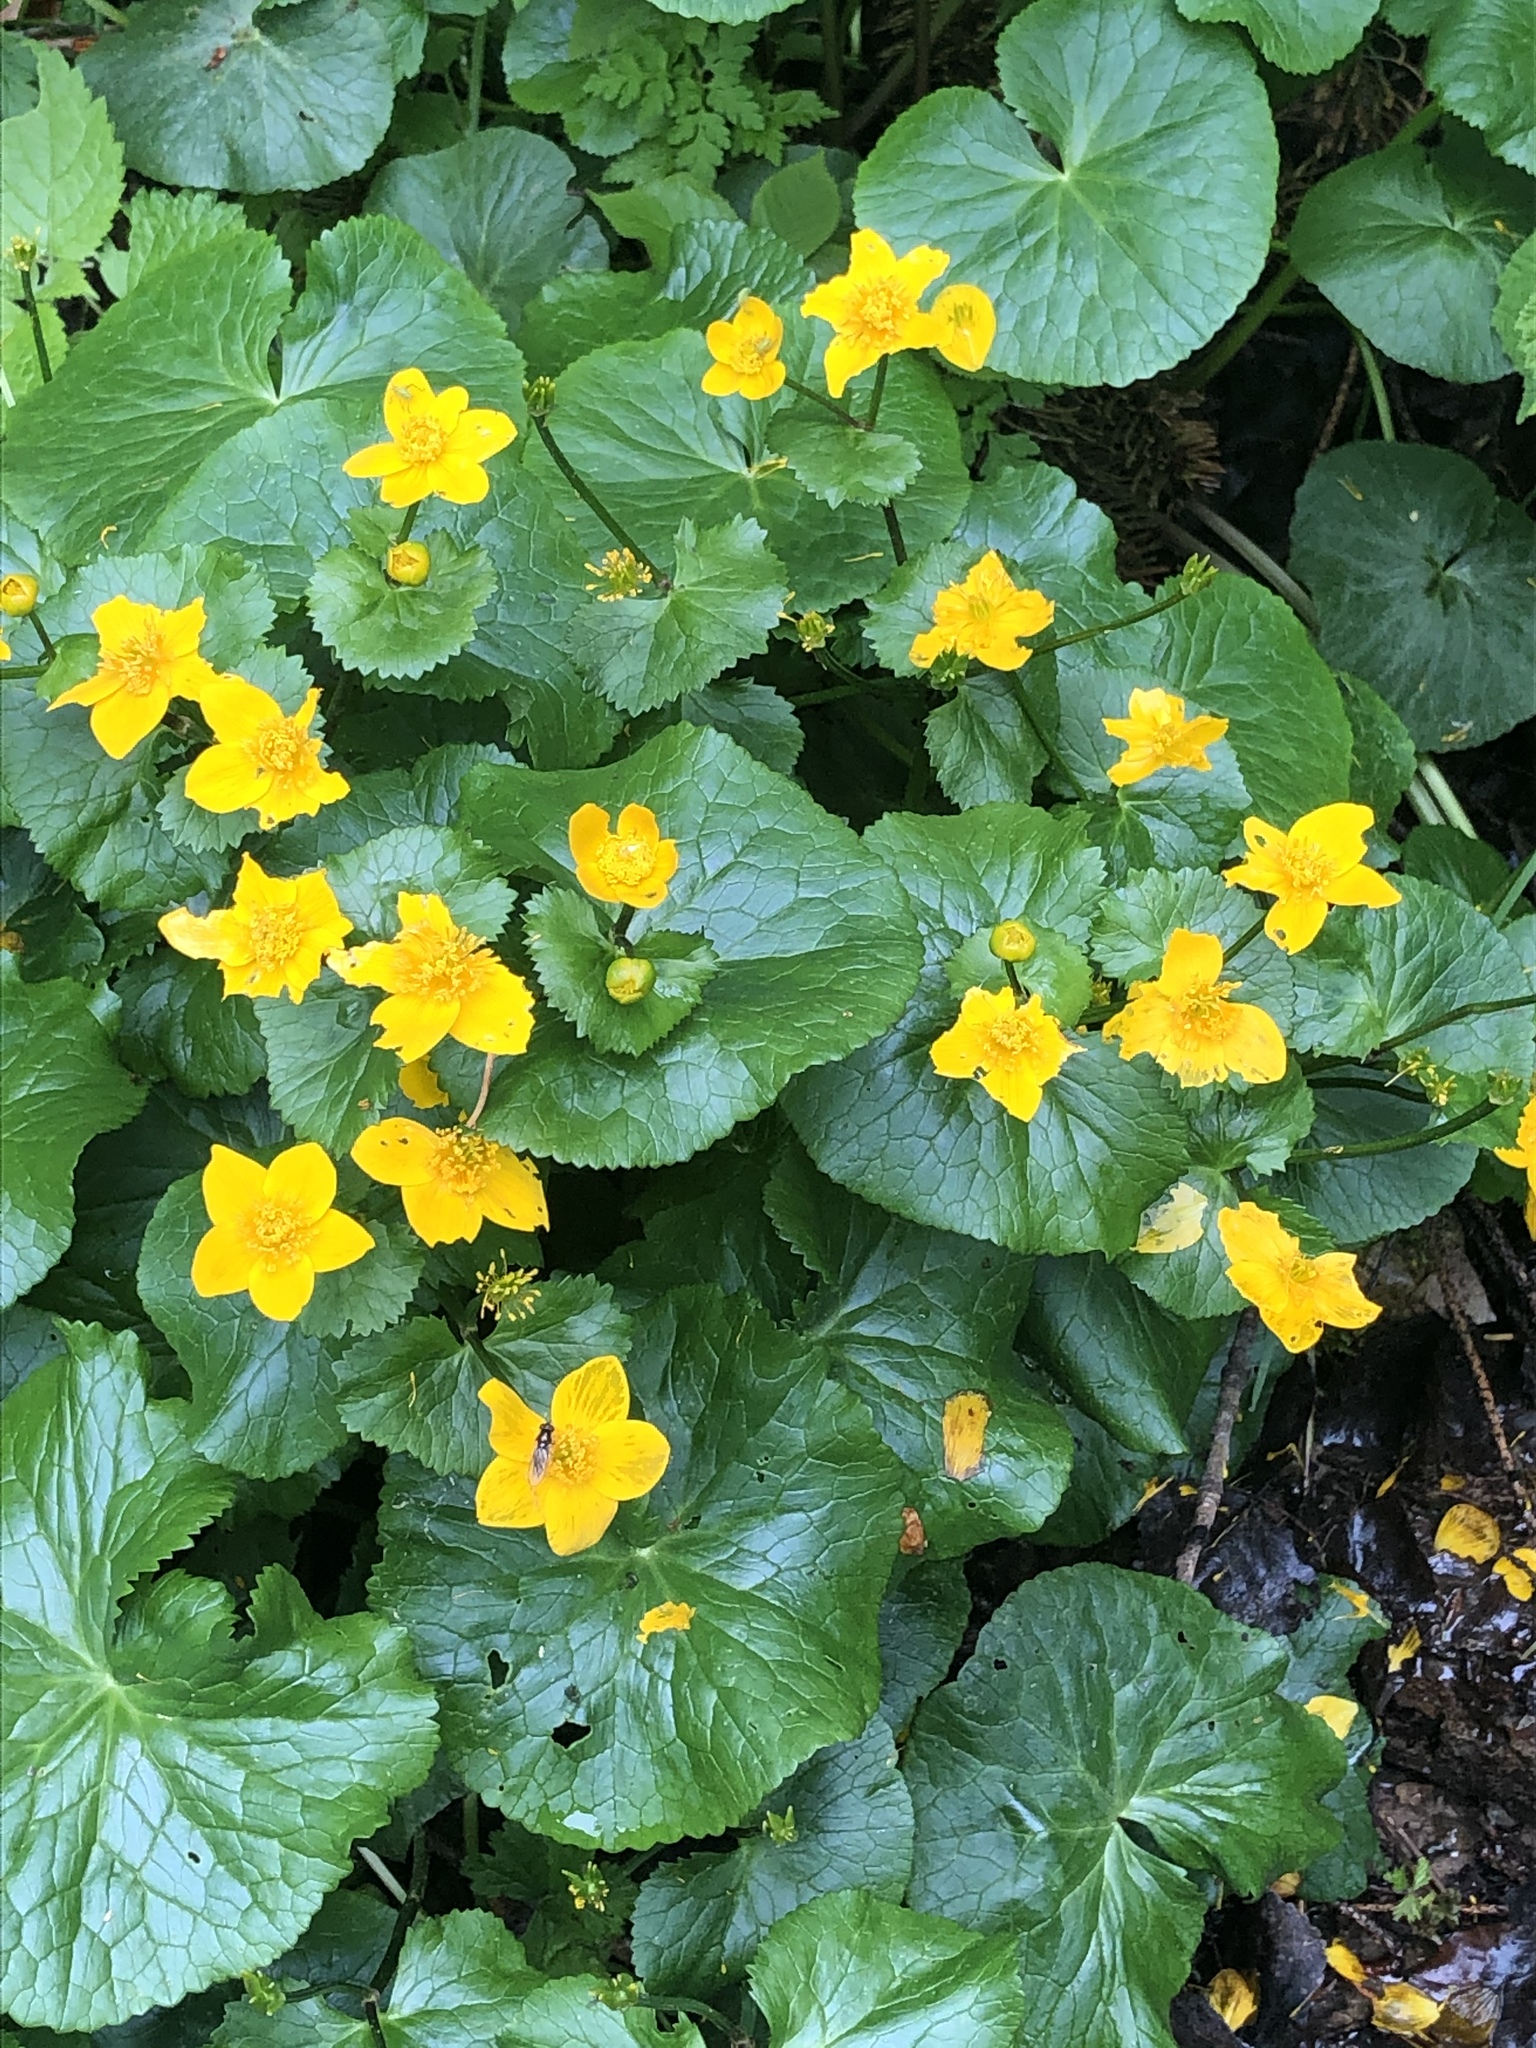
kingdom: Plantae
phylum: Tracheophyta
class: Magnoliopsida
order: Ranunculales
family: Ranunculaceae
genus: Caltha
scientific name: Caltha palustris
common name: Marsh marigold
